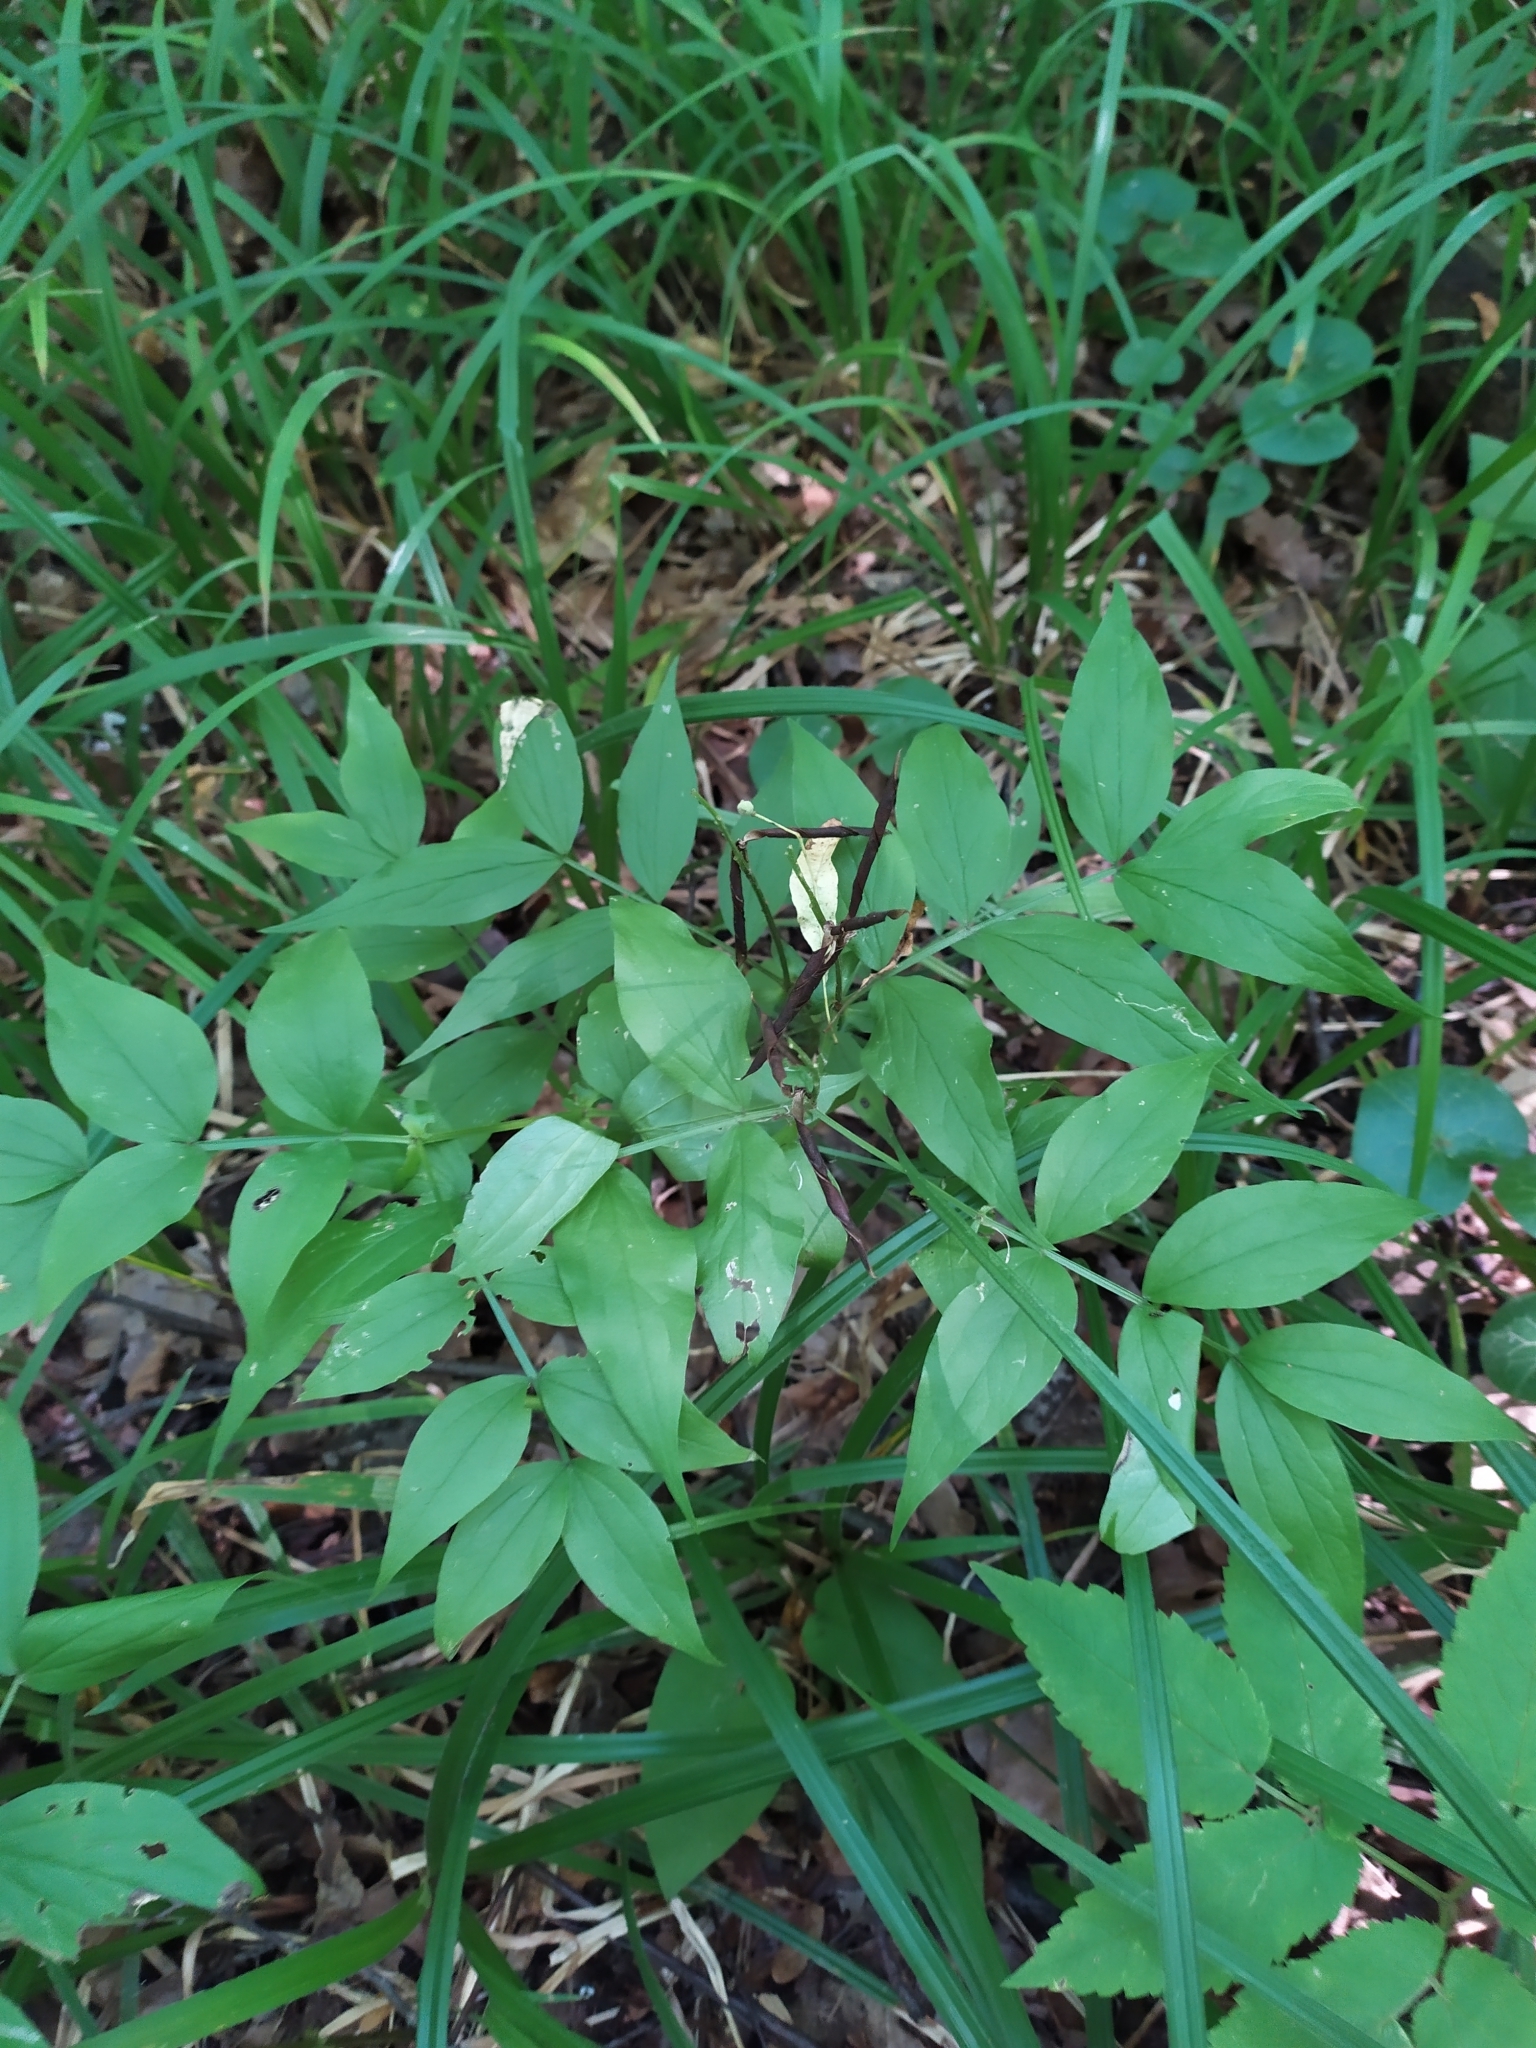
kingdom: Plantae
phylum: Tracheophyta
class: Magnoliopsida
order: Fabales
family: Fabaceae
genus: Lathyrus
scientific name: Lathyrus vernus
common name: Spring pea
